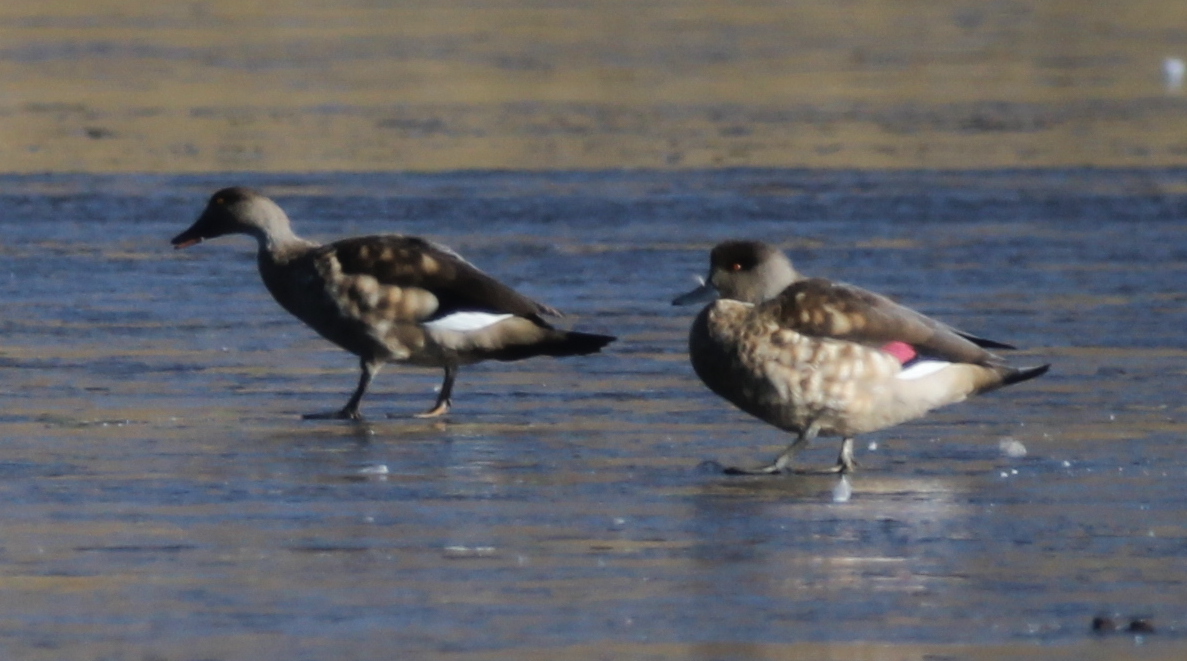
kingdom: Animalia
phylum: Chordata
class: Aves
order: Anseriformes
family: Anatidae
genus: Lophonetta
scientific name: Lophonetta specularioides
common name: Crested duck
